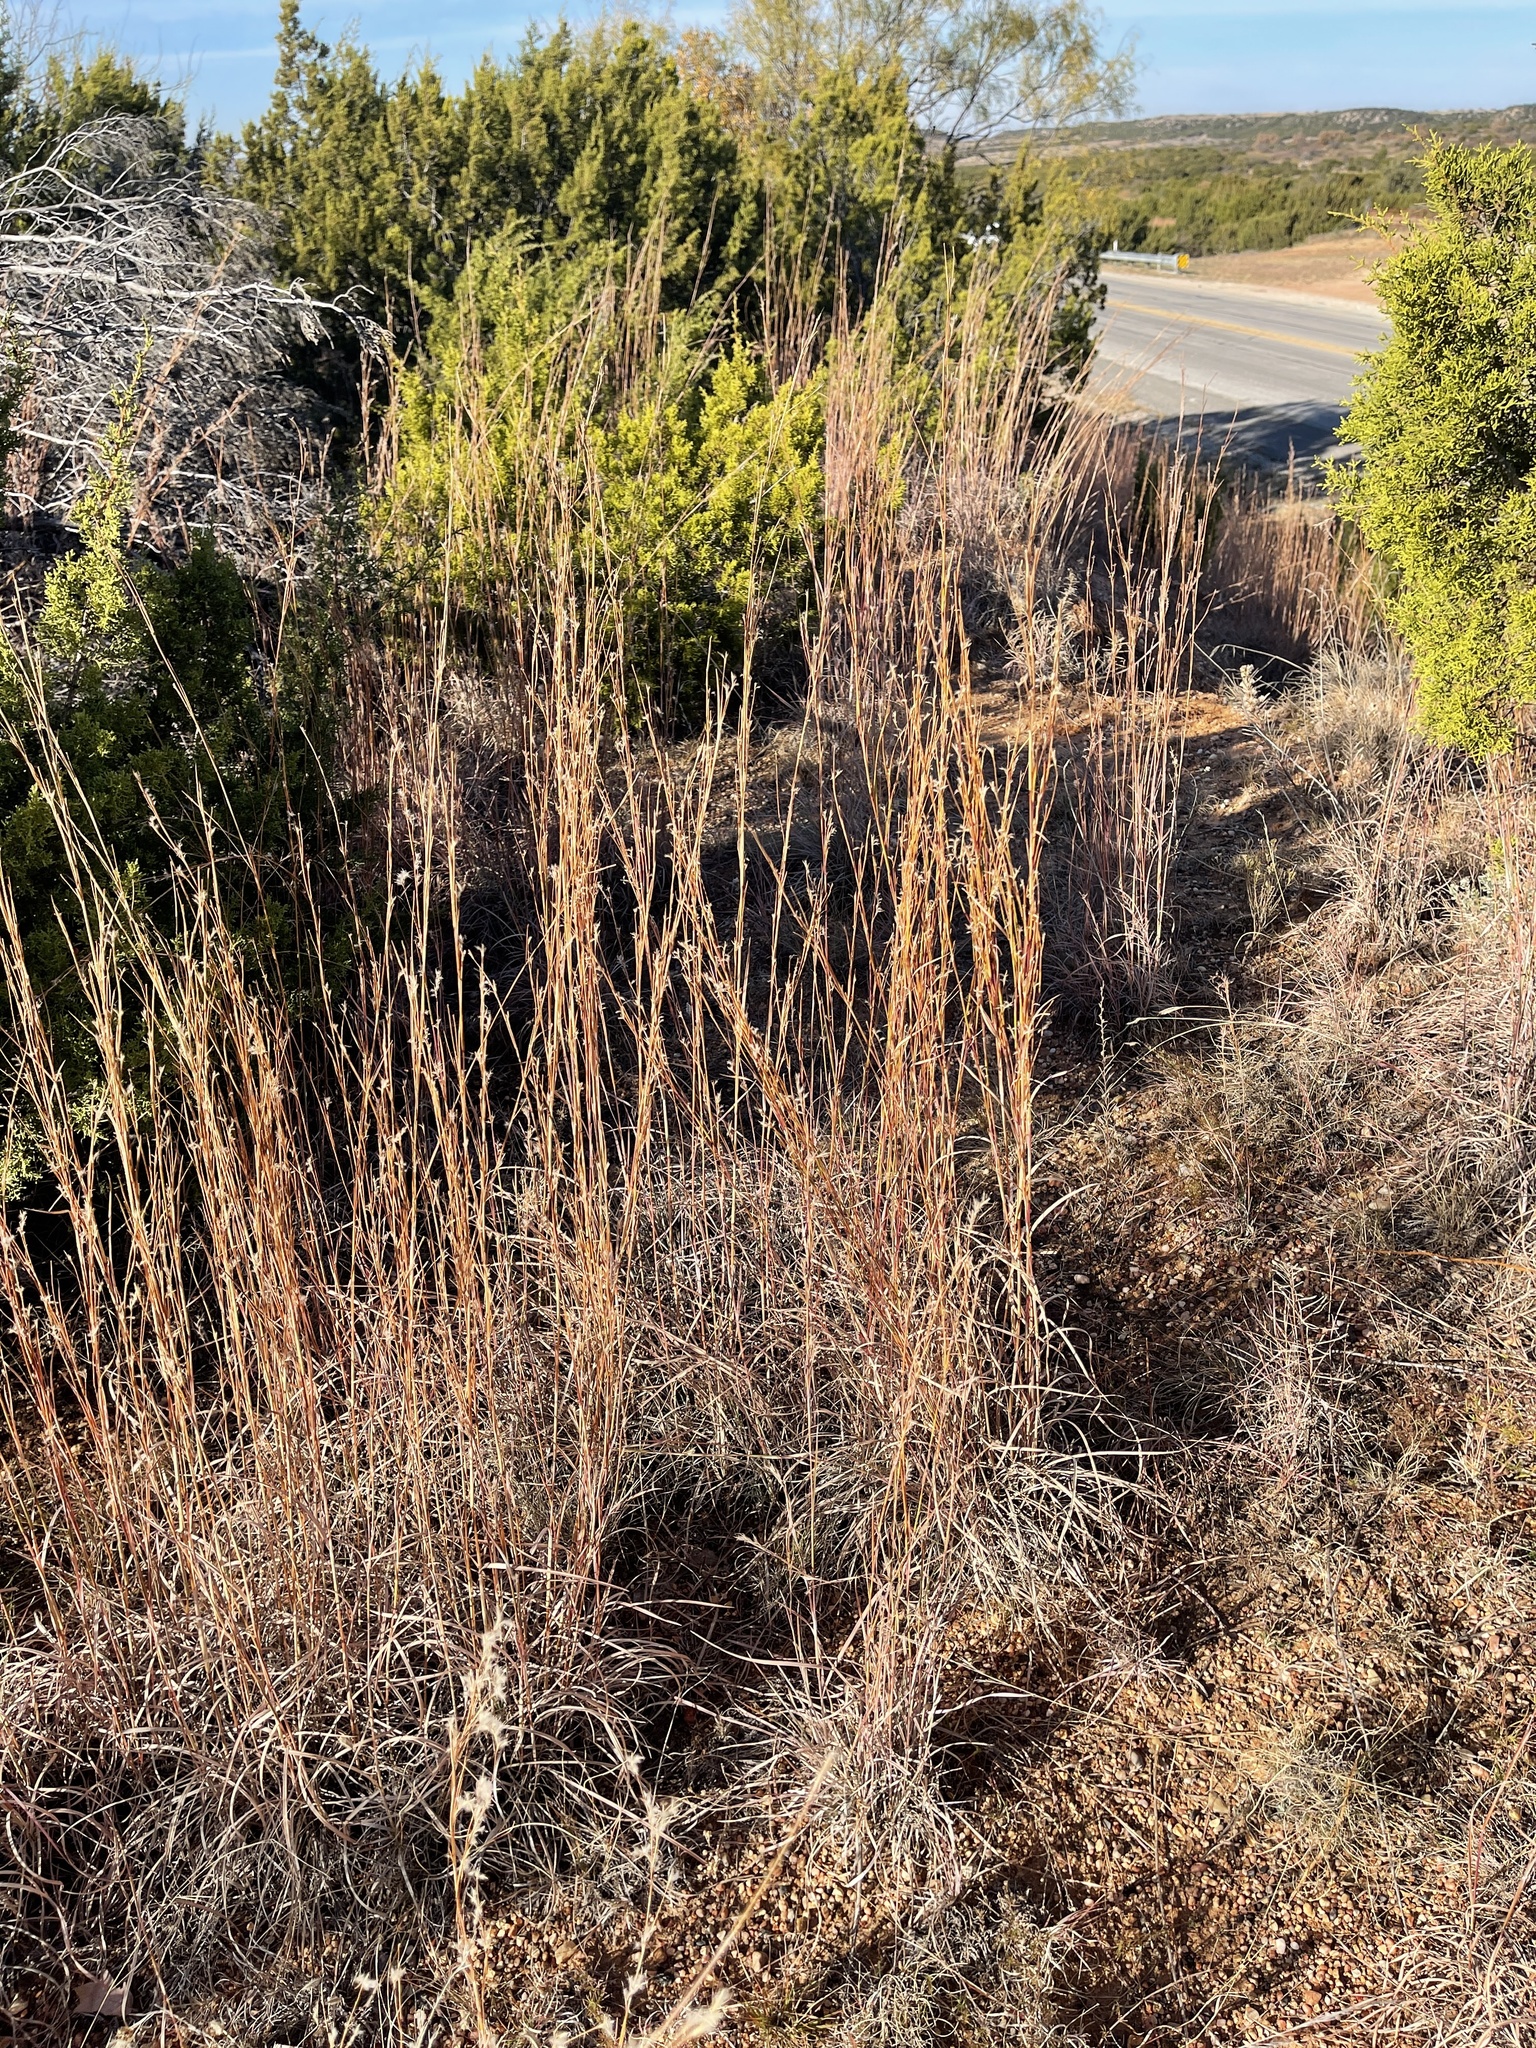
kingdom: Plantae
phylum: Tracheophyta
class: Liliopsida
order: Poales
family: Poaceae
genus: Schizachyrium
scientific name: Schizachyrium scoparium
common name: Little bluestem
